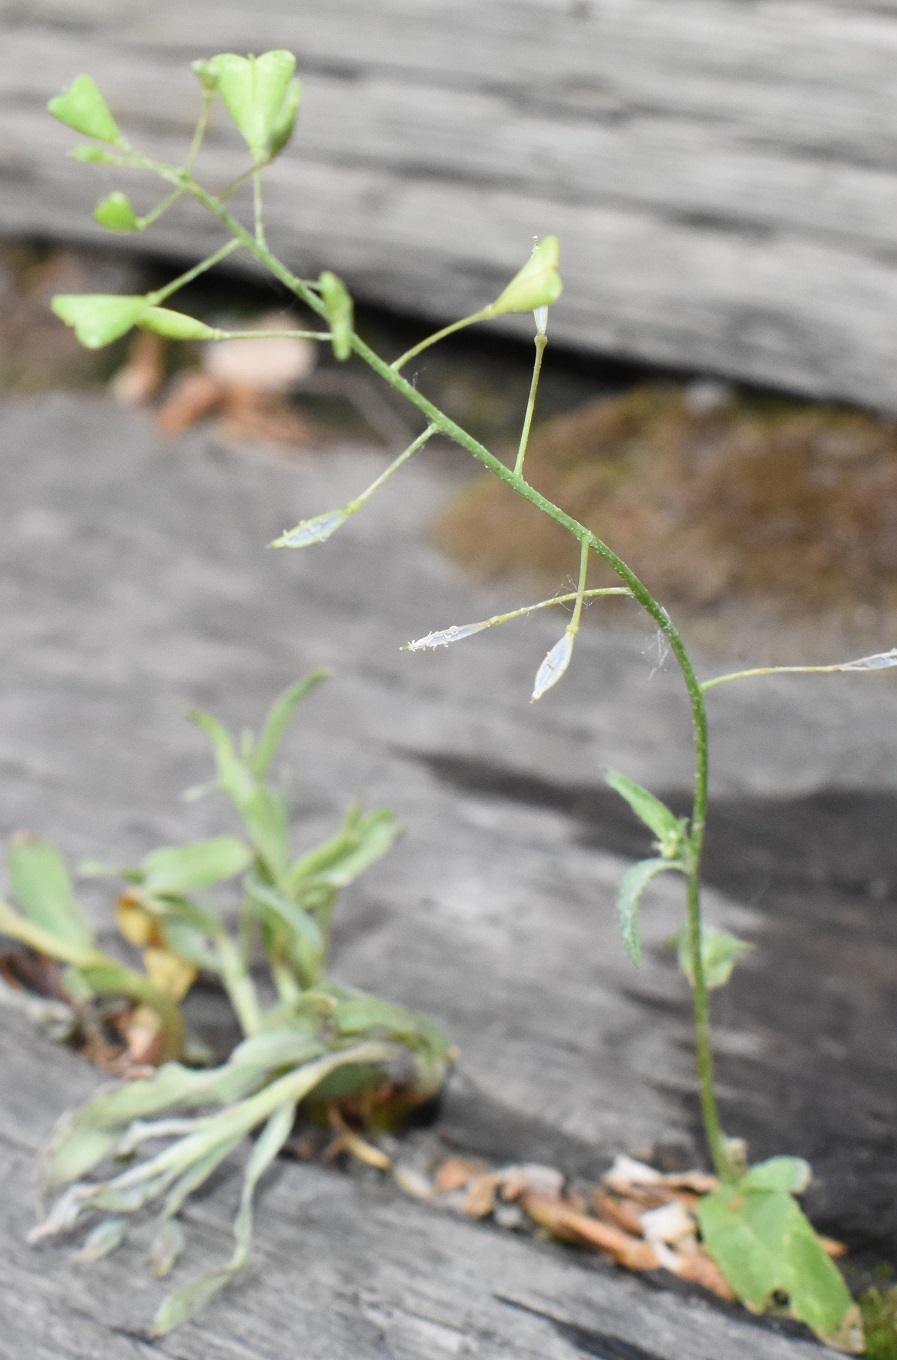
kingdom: Plantae
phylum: Tracheophyta
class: Magnoliopsida
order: Brassicales
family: Brassicaceae
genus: Capsella
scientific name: Capsella bursa-pastoris
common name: Shepherd's purse
